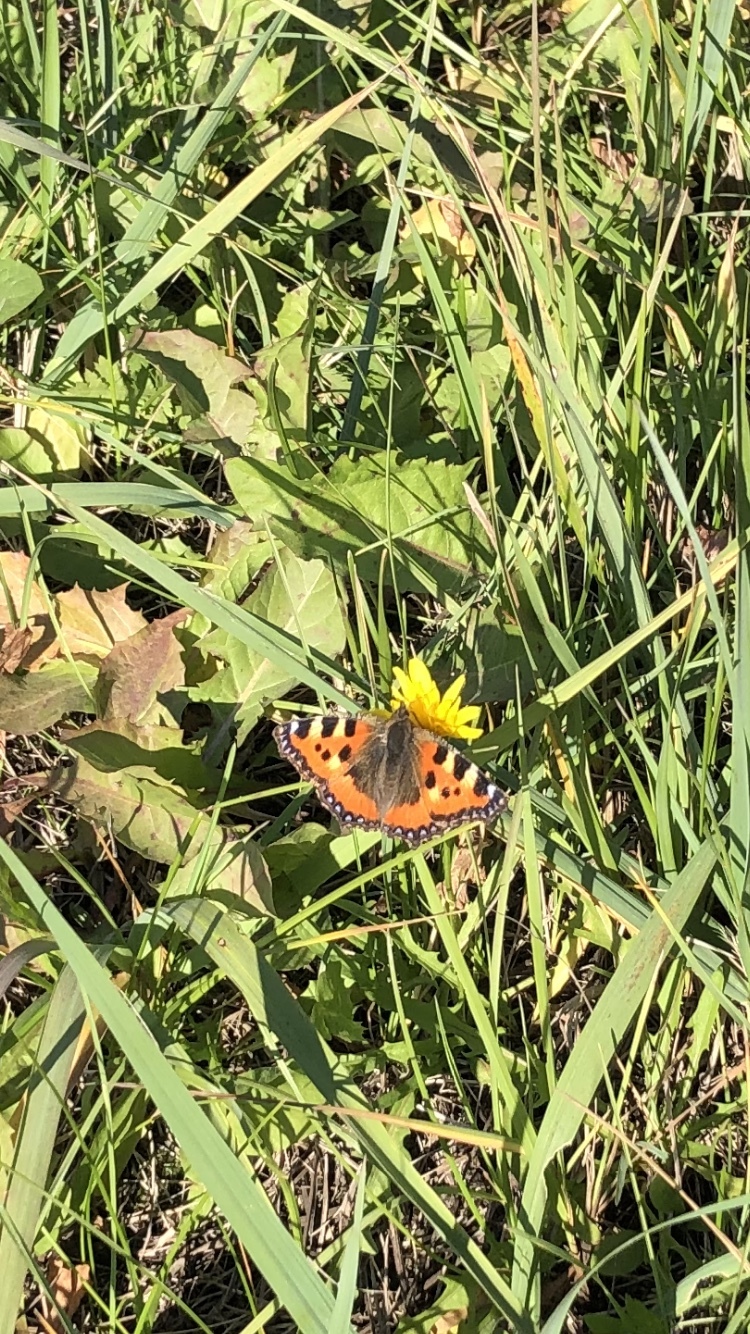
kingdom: Animalia
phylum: Arthropoda
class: Insecta
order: Lepidoptera
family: Nymphalidae
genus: Aglais
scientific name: Aglais urticae
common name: Small tortoiseshell
